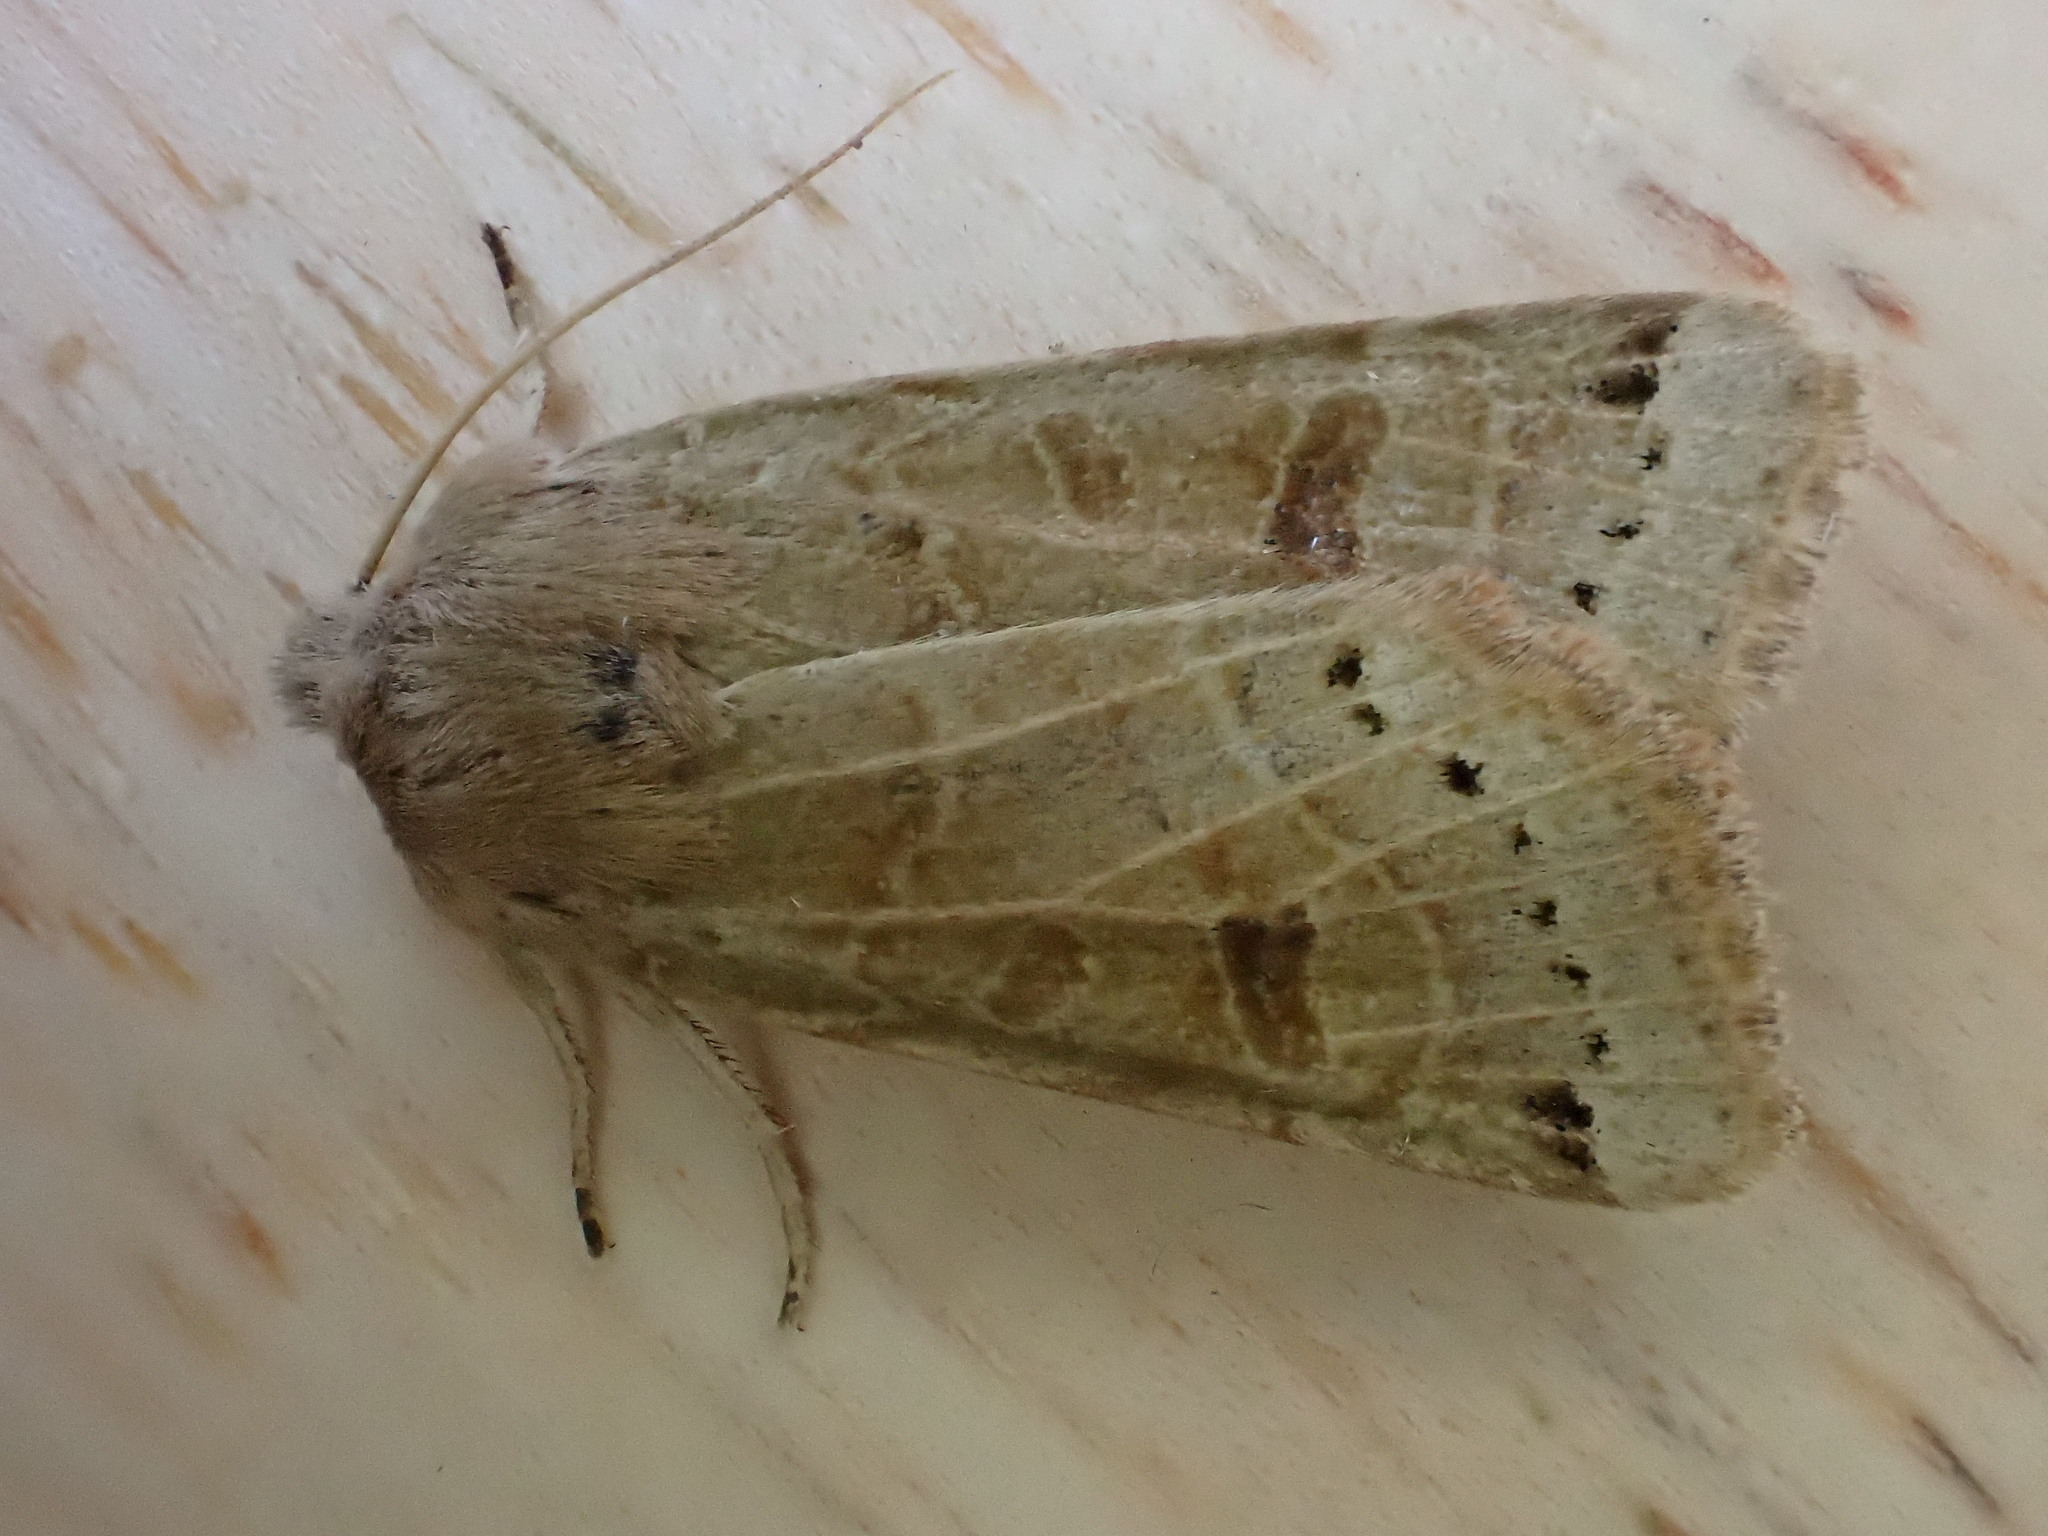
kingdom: Animalia
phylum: Arthropoda
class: Insecta
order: Lepidoptera
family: Noctuidae
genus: Agrochola
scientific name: Agrochola lunosa
